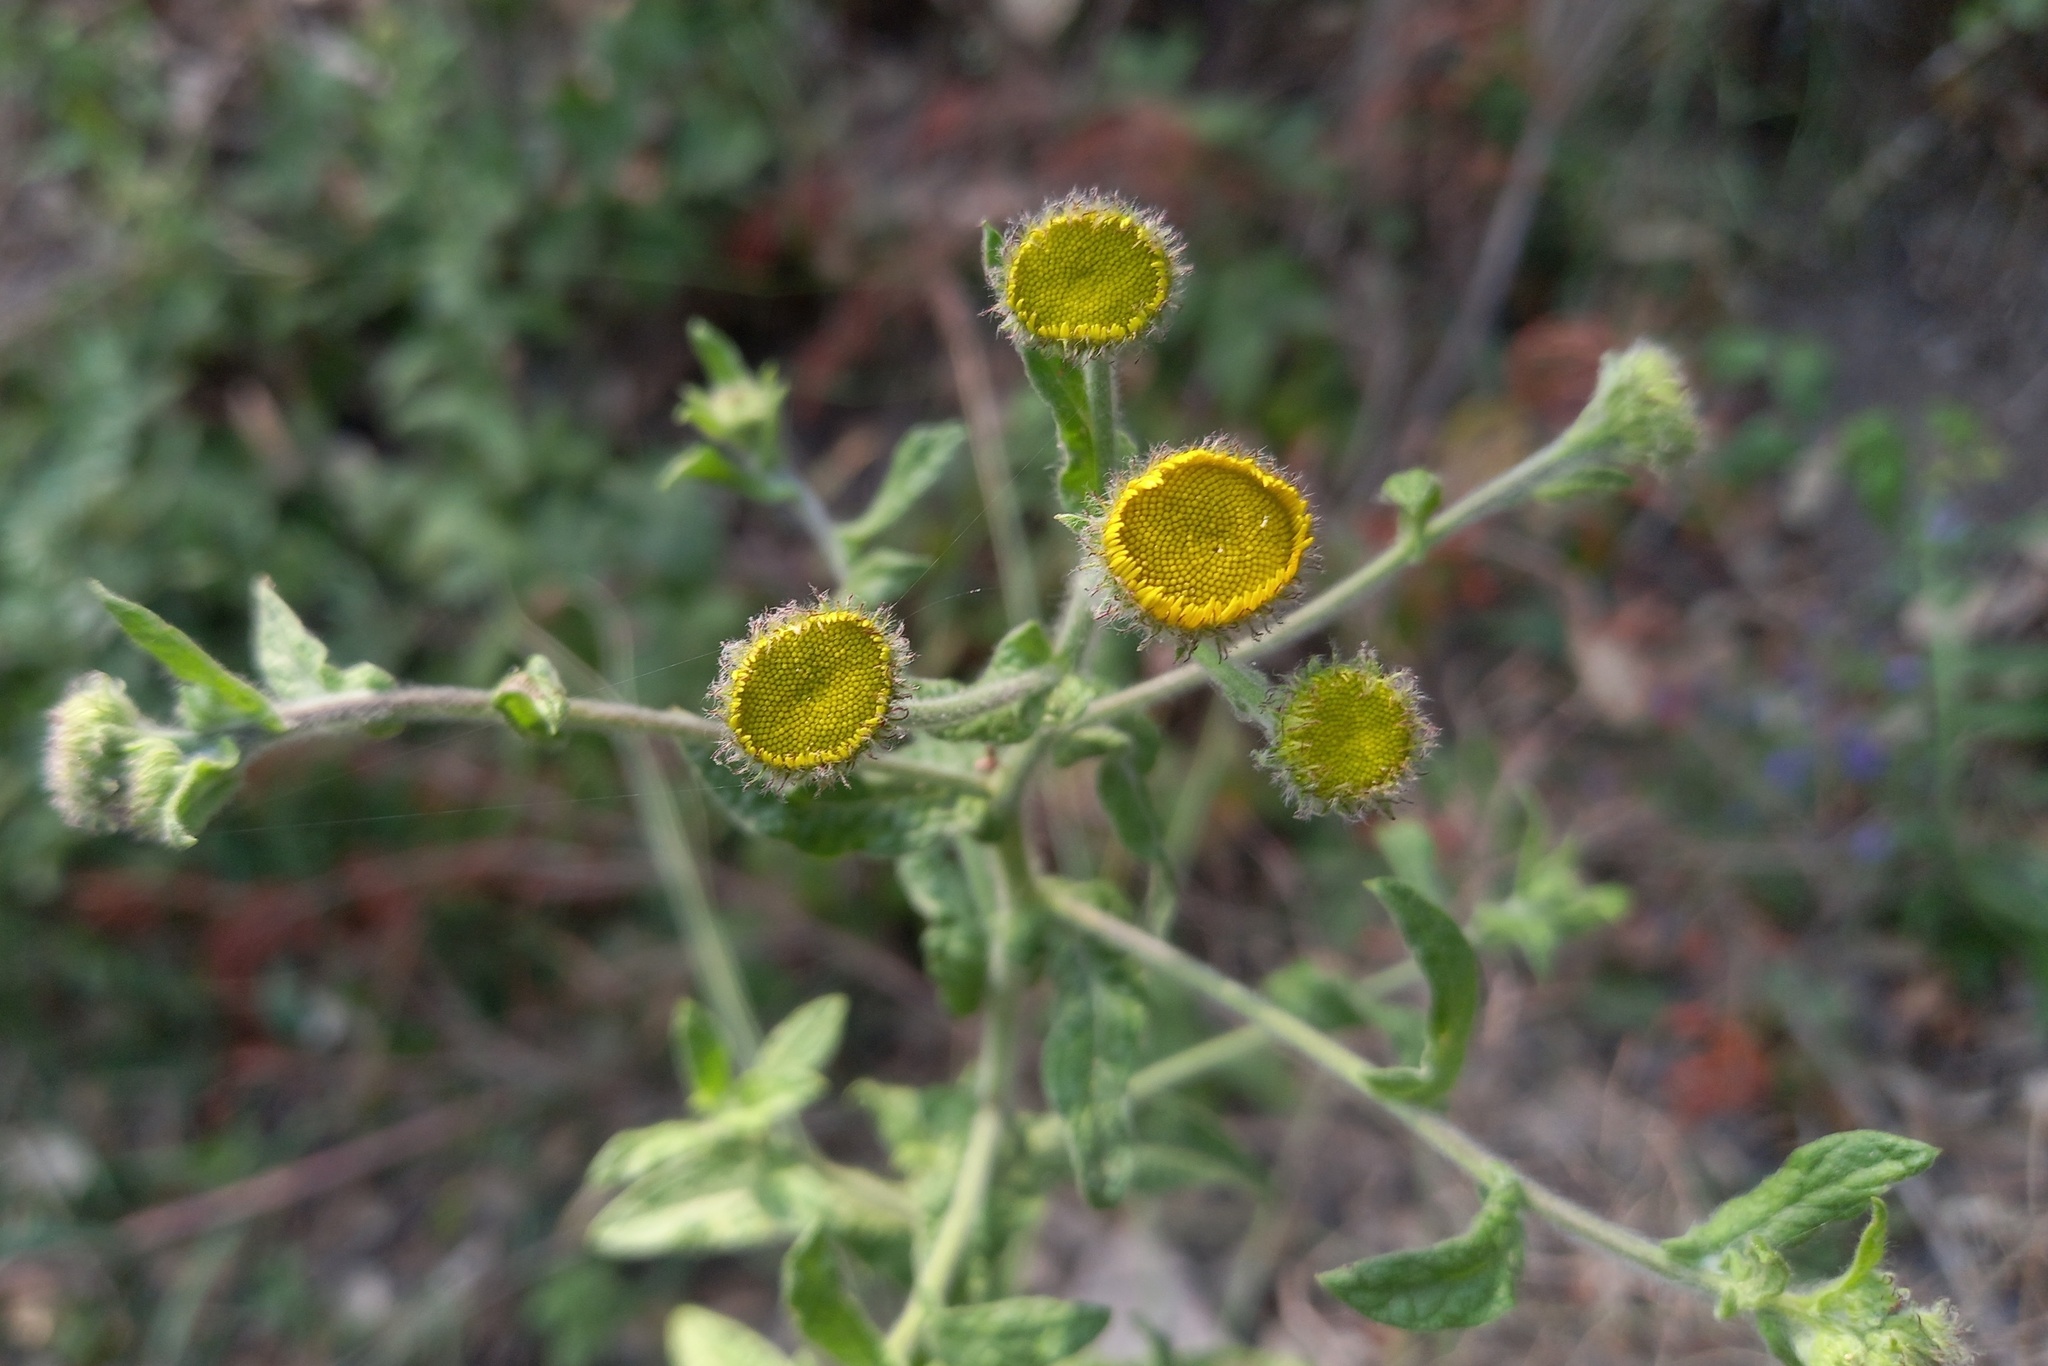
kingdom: Plantae
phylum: Tracheophyta
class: Magnoliopsida
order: Asterales
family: Asteraceae
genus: Pulicaria
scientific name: Pulicaria dysenterica
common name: Common fleabane
